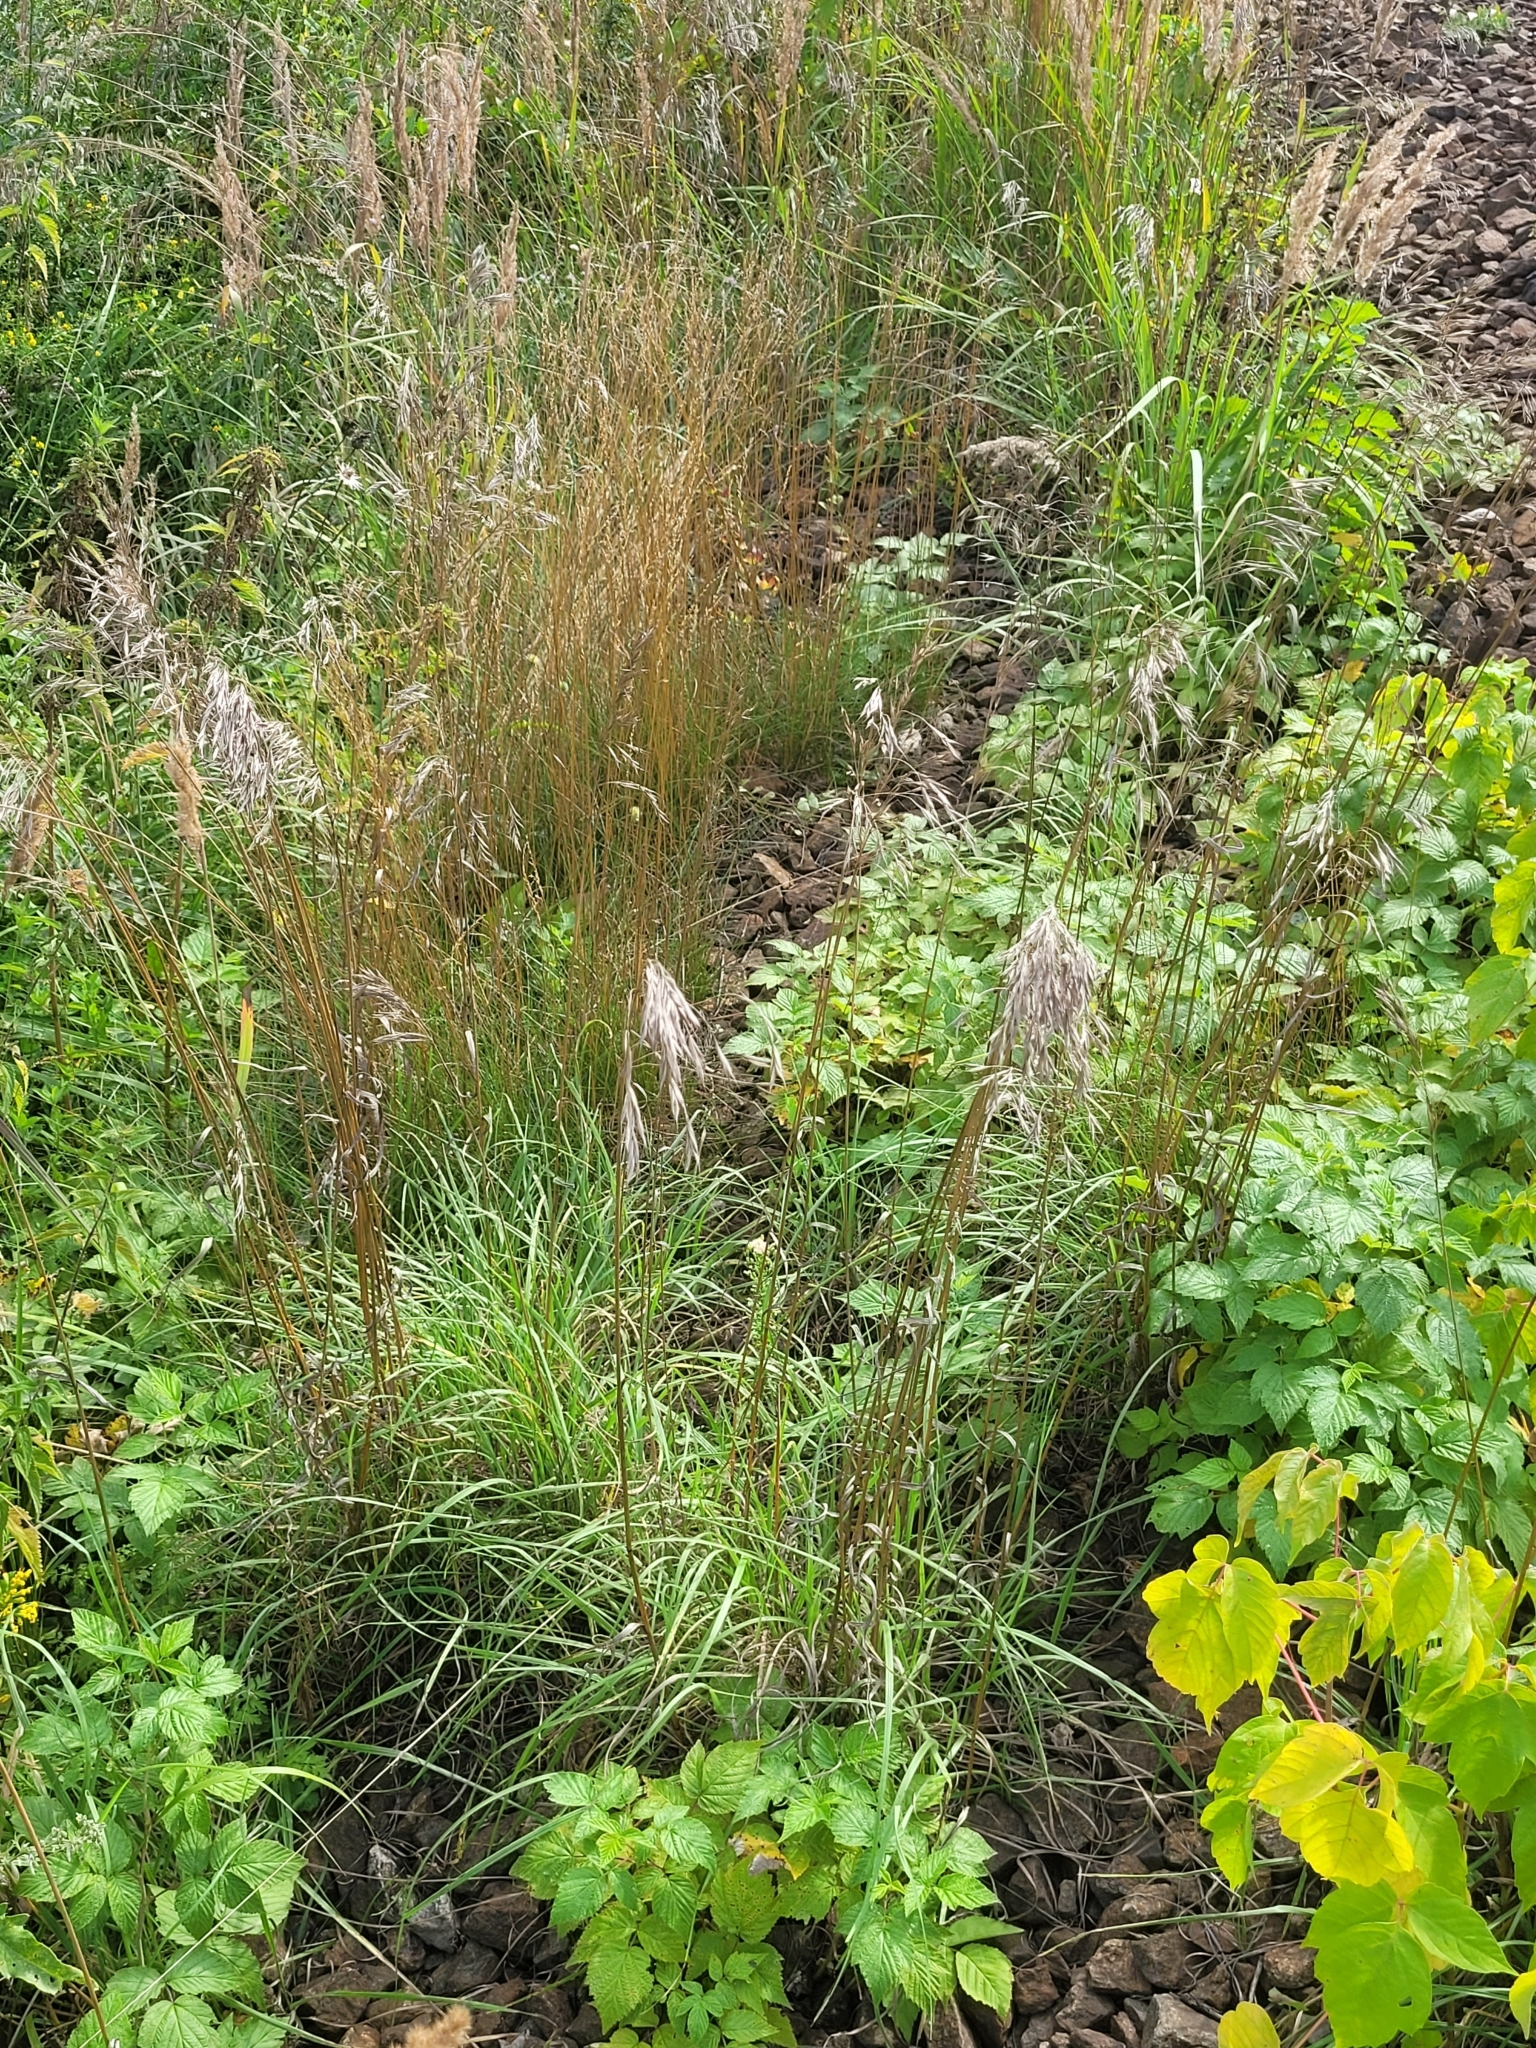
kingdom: Plantae
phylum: Tracheophyta
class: Liliopsida
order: Poales
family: Poaceae
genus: Bromus
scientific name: Bromus riparius
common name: Meadow brome
